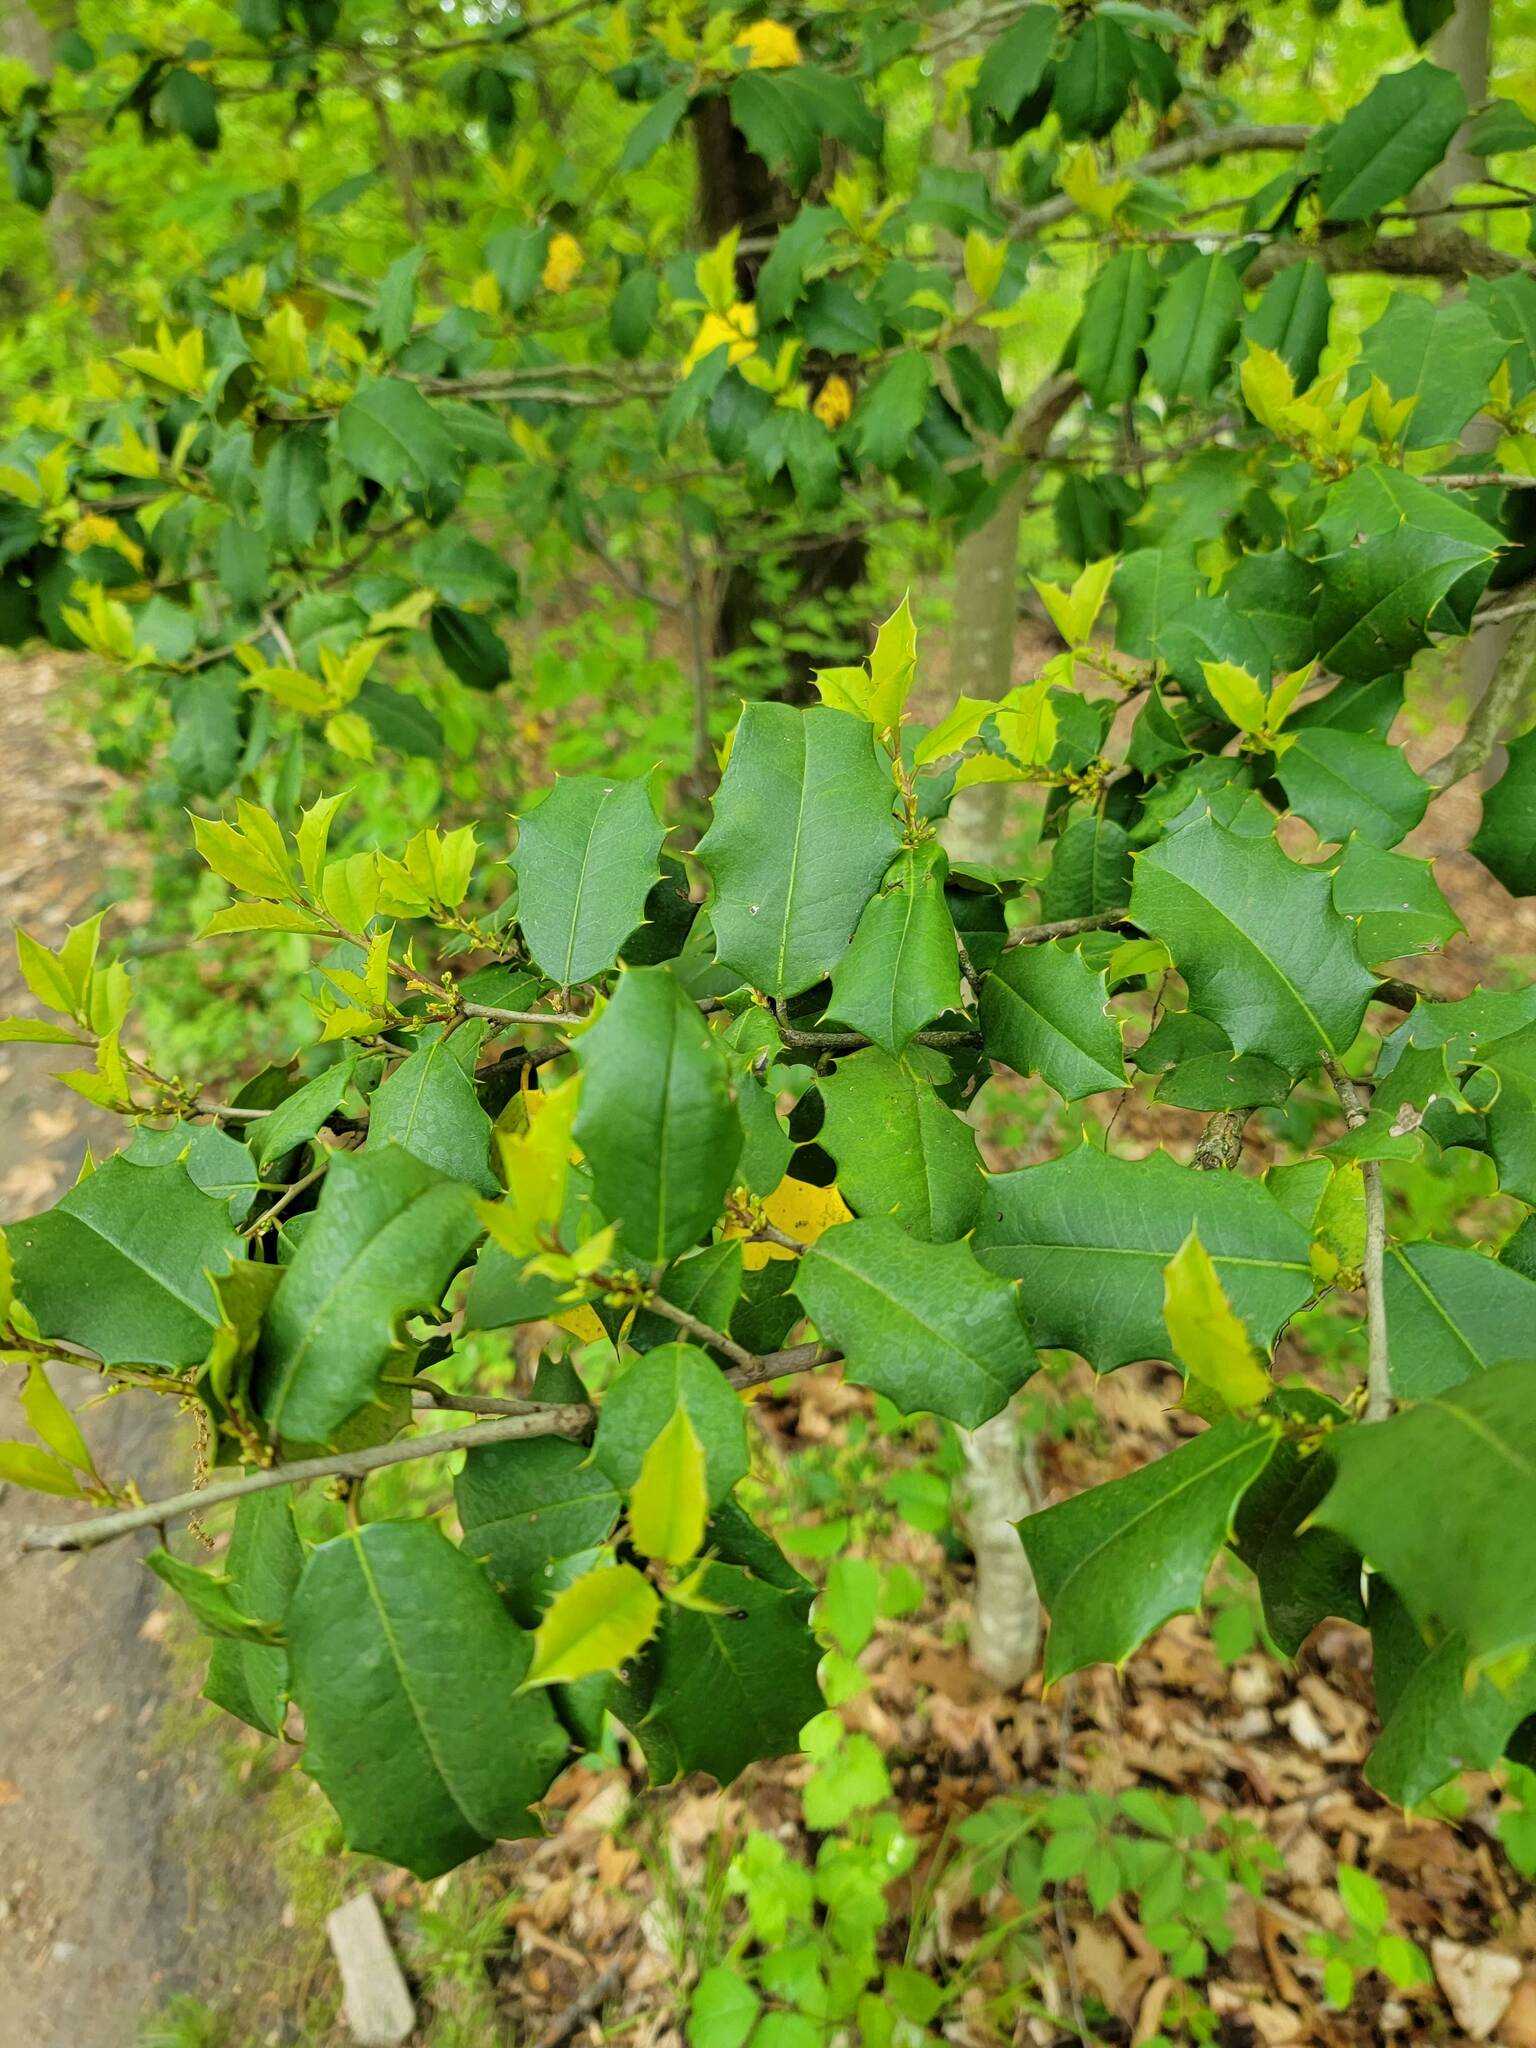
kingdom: Plantae
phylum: Tracheophyta
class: Magnoliopsida
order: Aquifoliales
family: Aquifoliaceae
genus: Ilex
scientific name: Ilex opaca
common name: American holly
